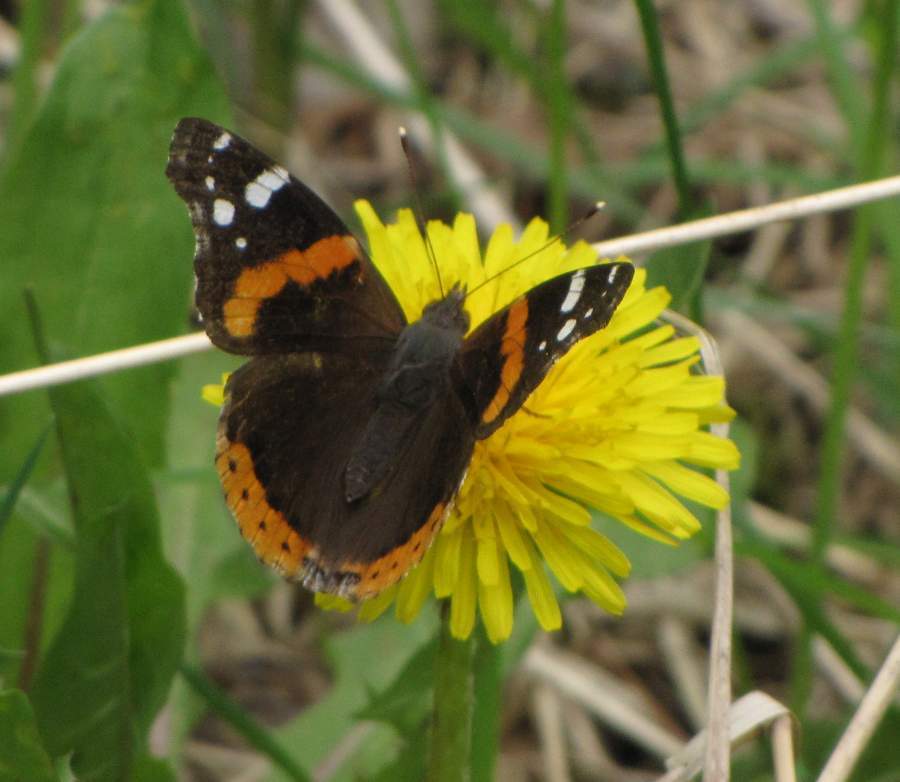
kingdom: Animalia
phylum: Arthropoda
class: Insecta
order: Lepidoptera
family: Nymphalidae
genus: Vanessa
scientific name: Vanessa atalanta
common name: Red admiral
